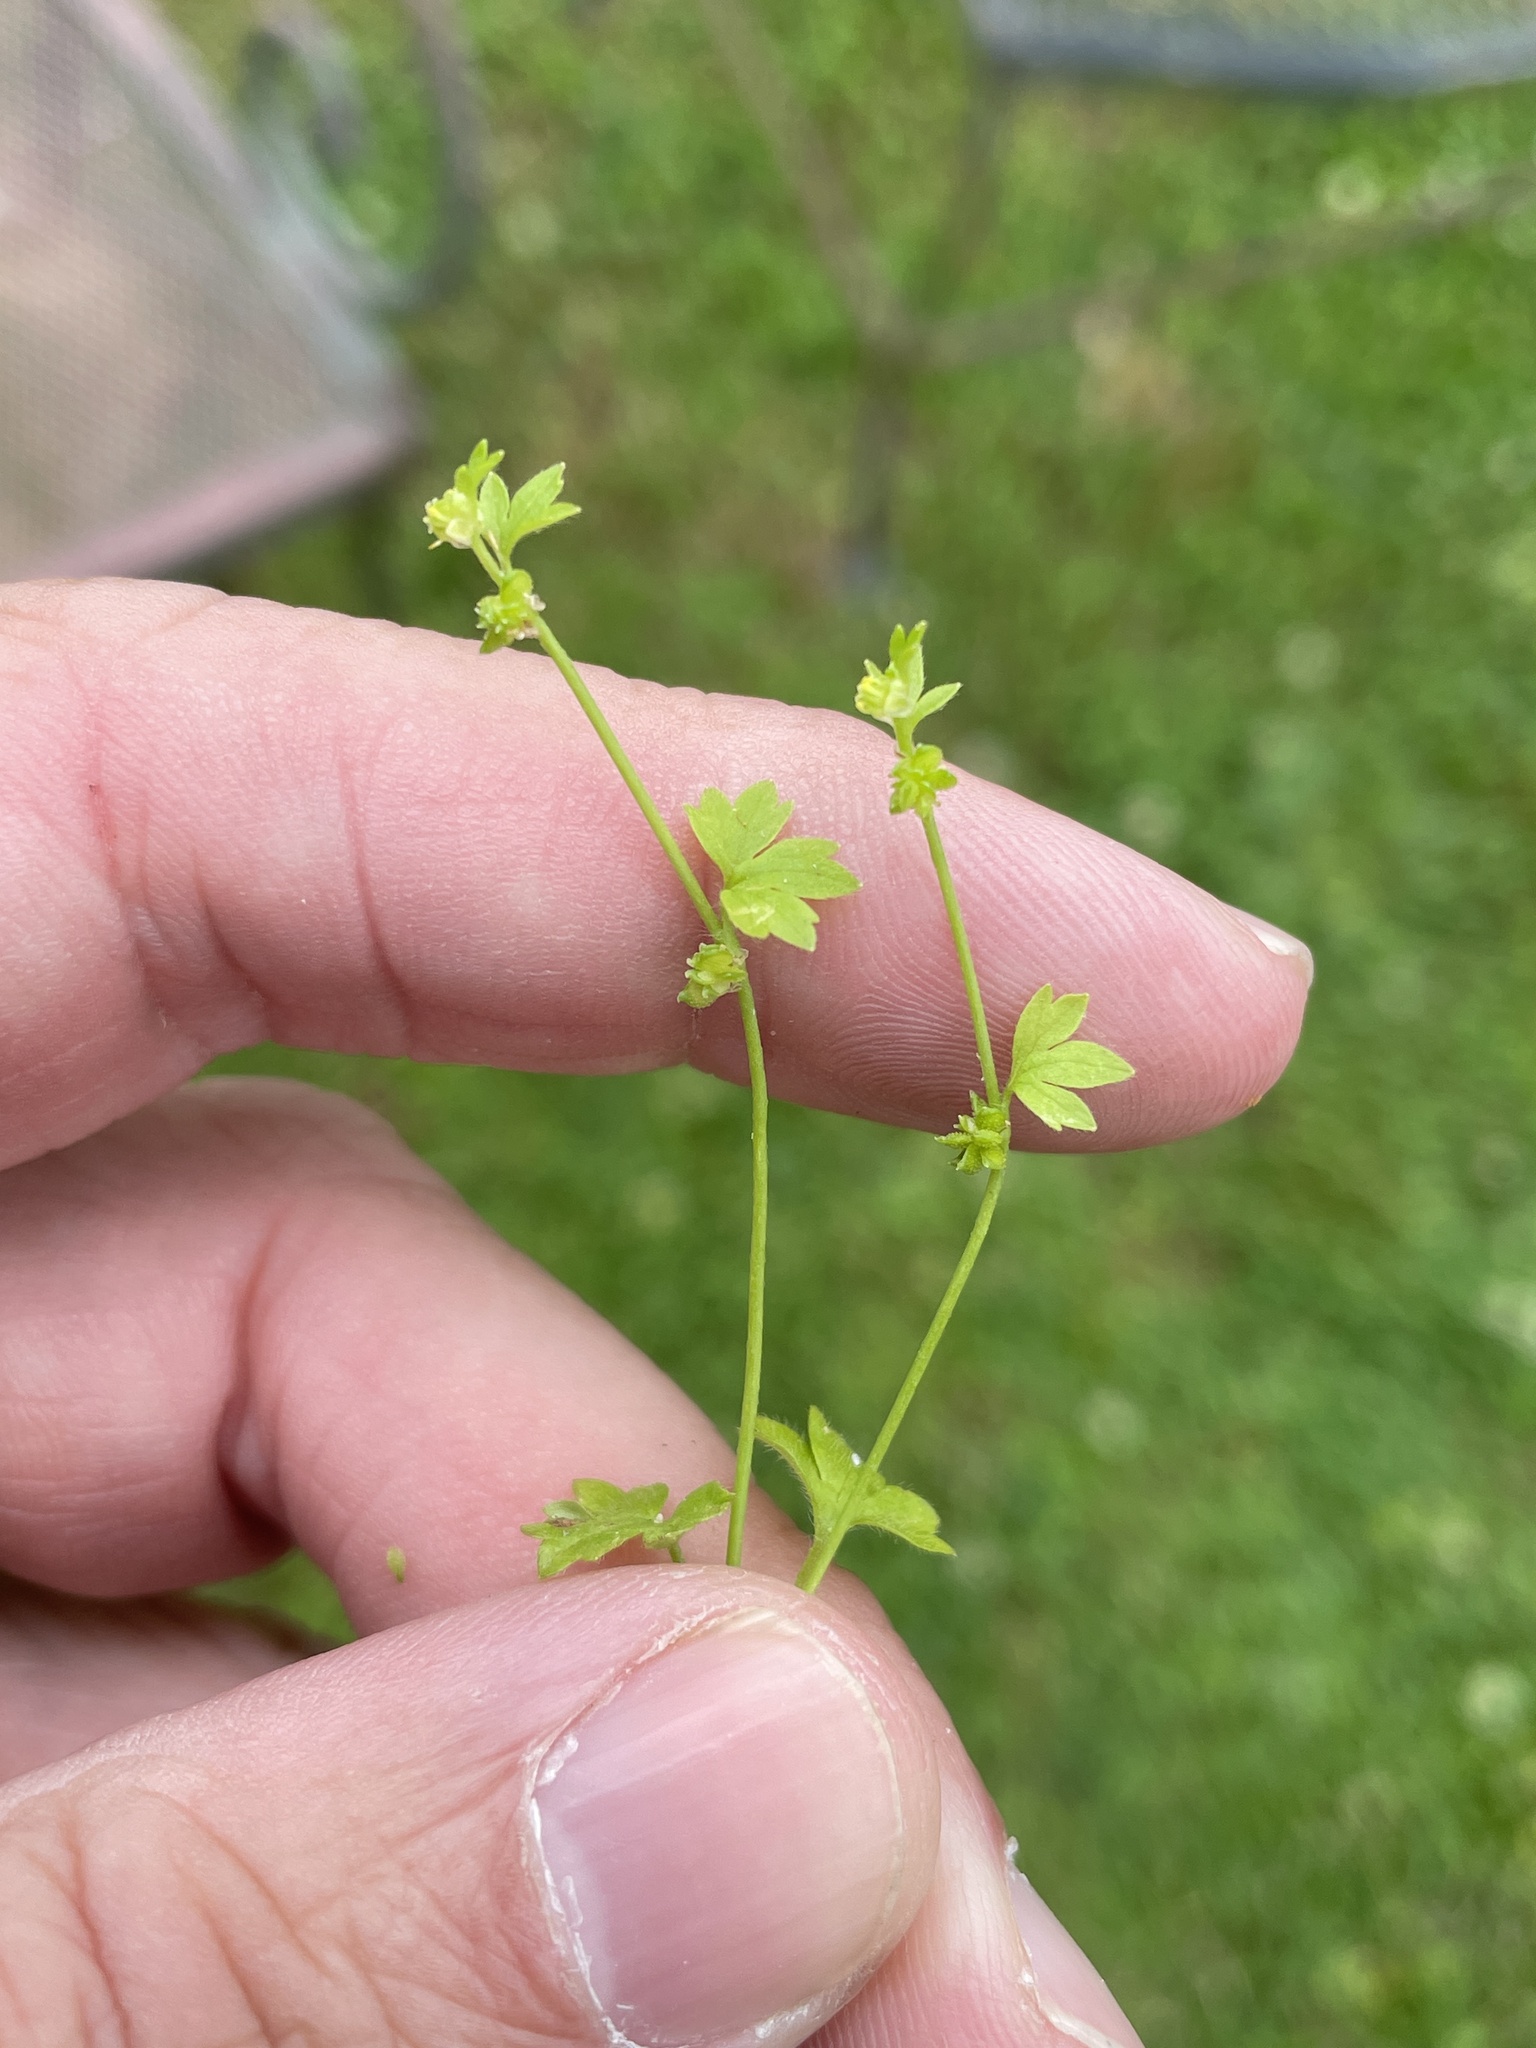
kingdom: Plantae
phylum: Tracheophyta
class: Magnoliopsida
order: Ranunculales
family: Ranunculaceae
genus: Ranunculus
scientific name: Ranunculus platensis
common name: Prairie buttercup
